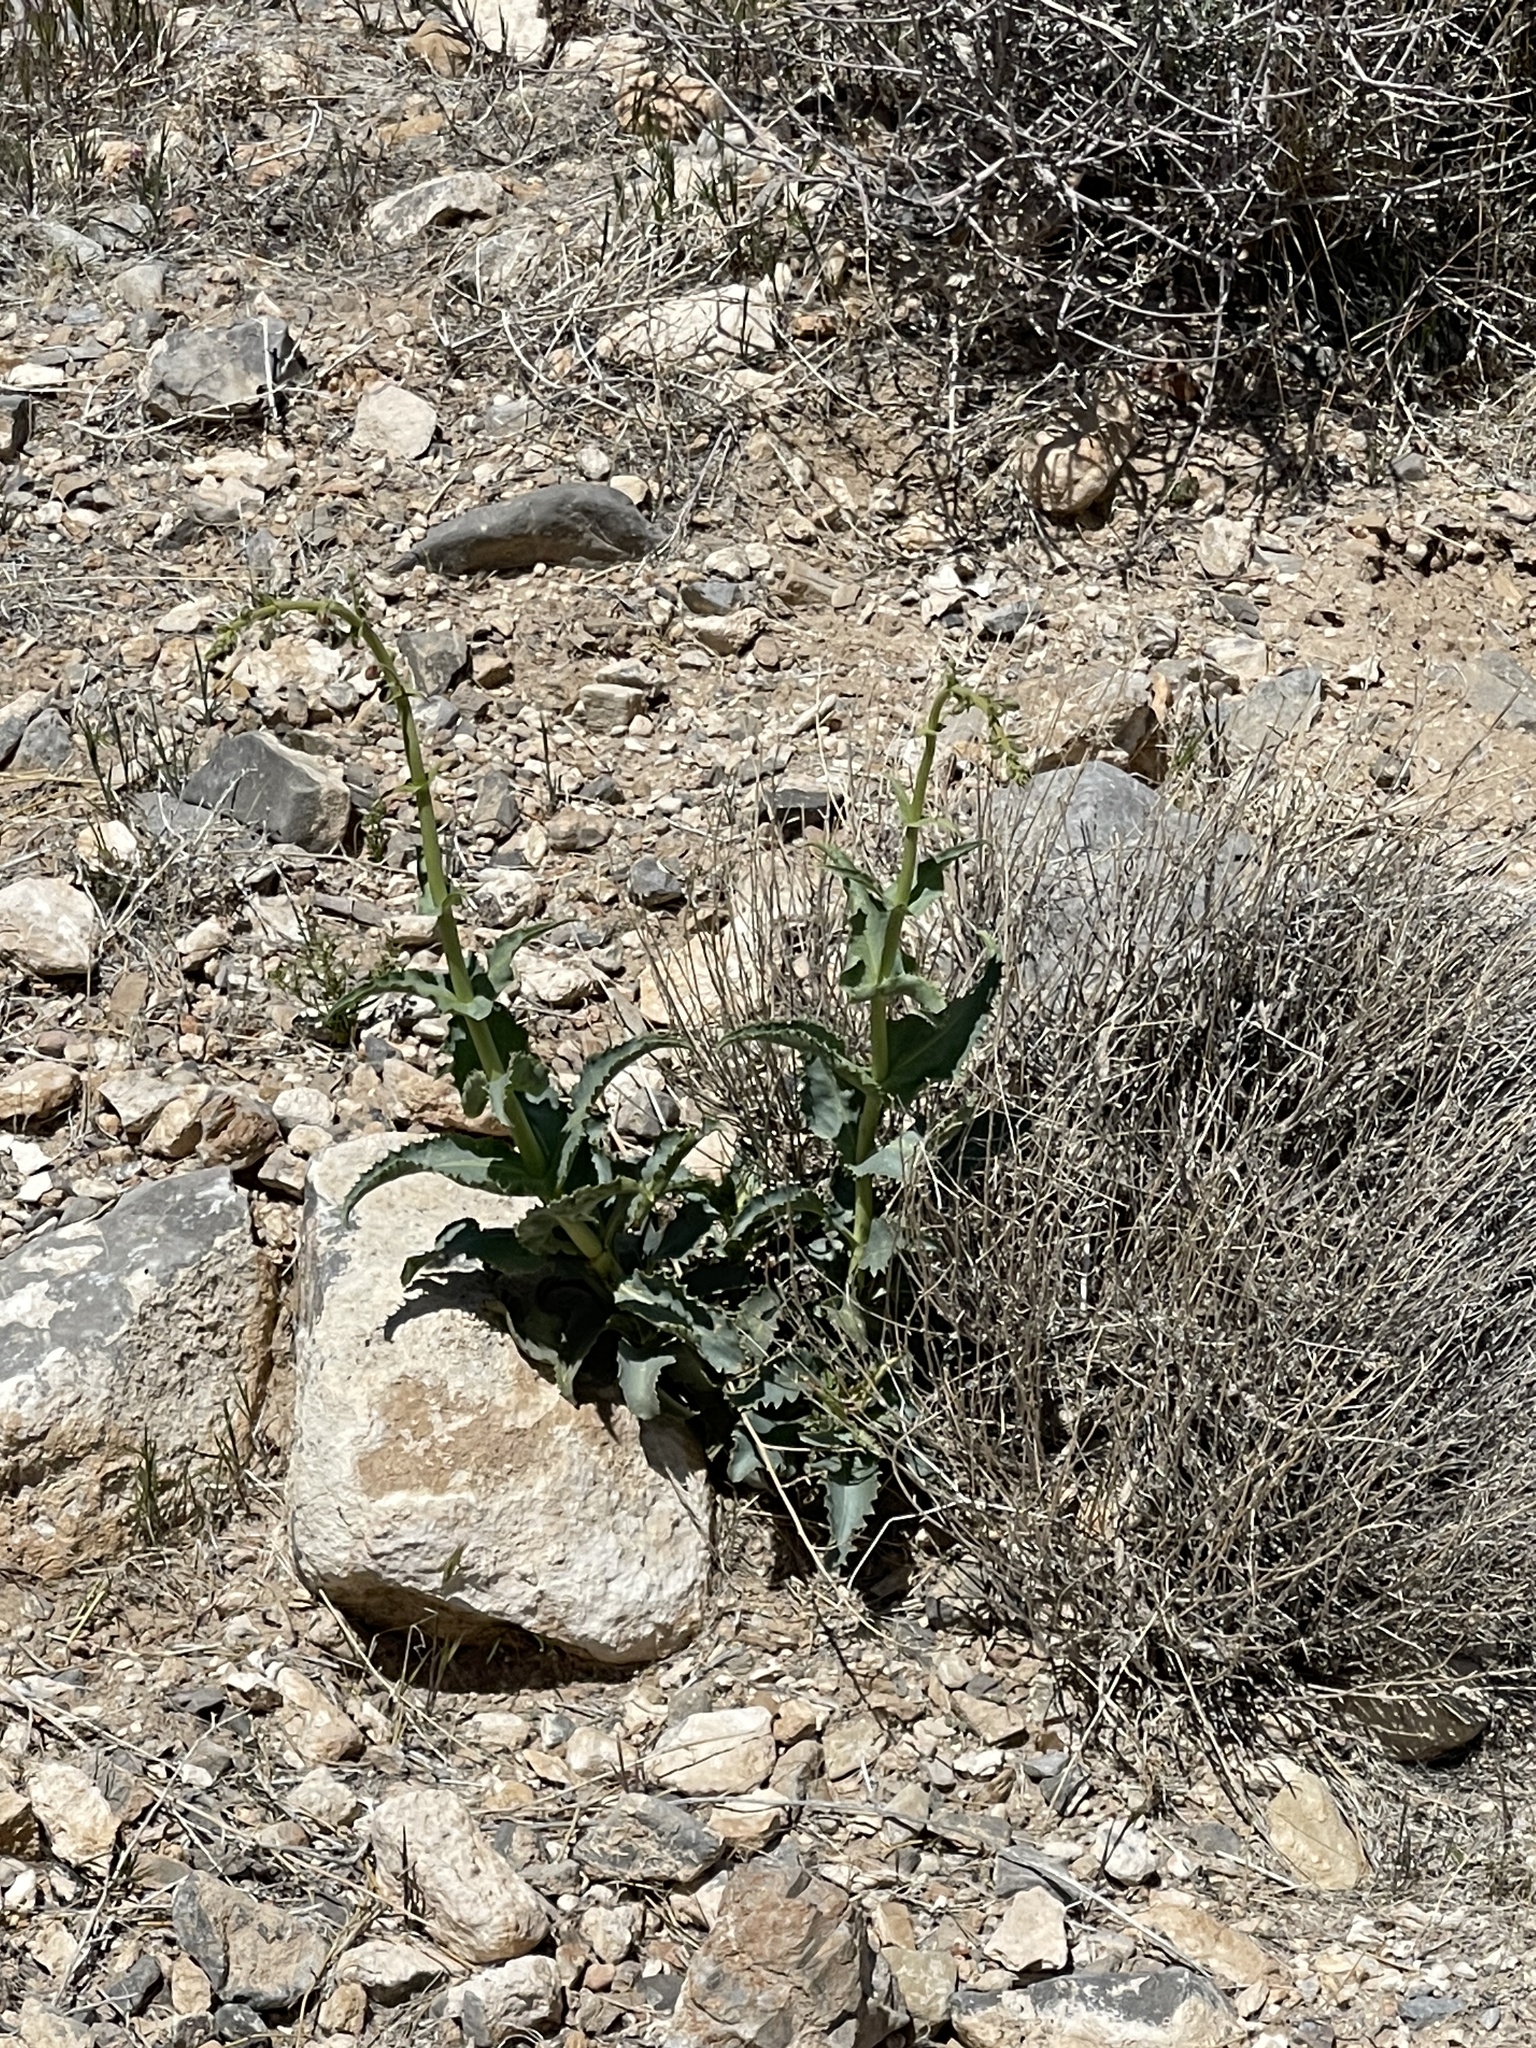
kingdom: Plantae
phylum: Tracheophyta
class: Magnoliopsida
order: Lamiales
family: Plantaginaceae
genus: Penstemon
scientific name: Penstemon bicolor
